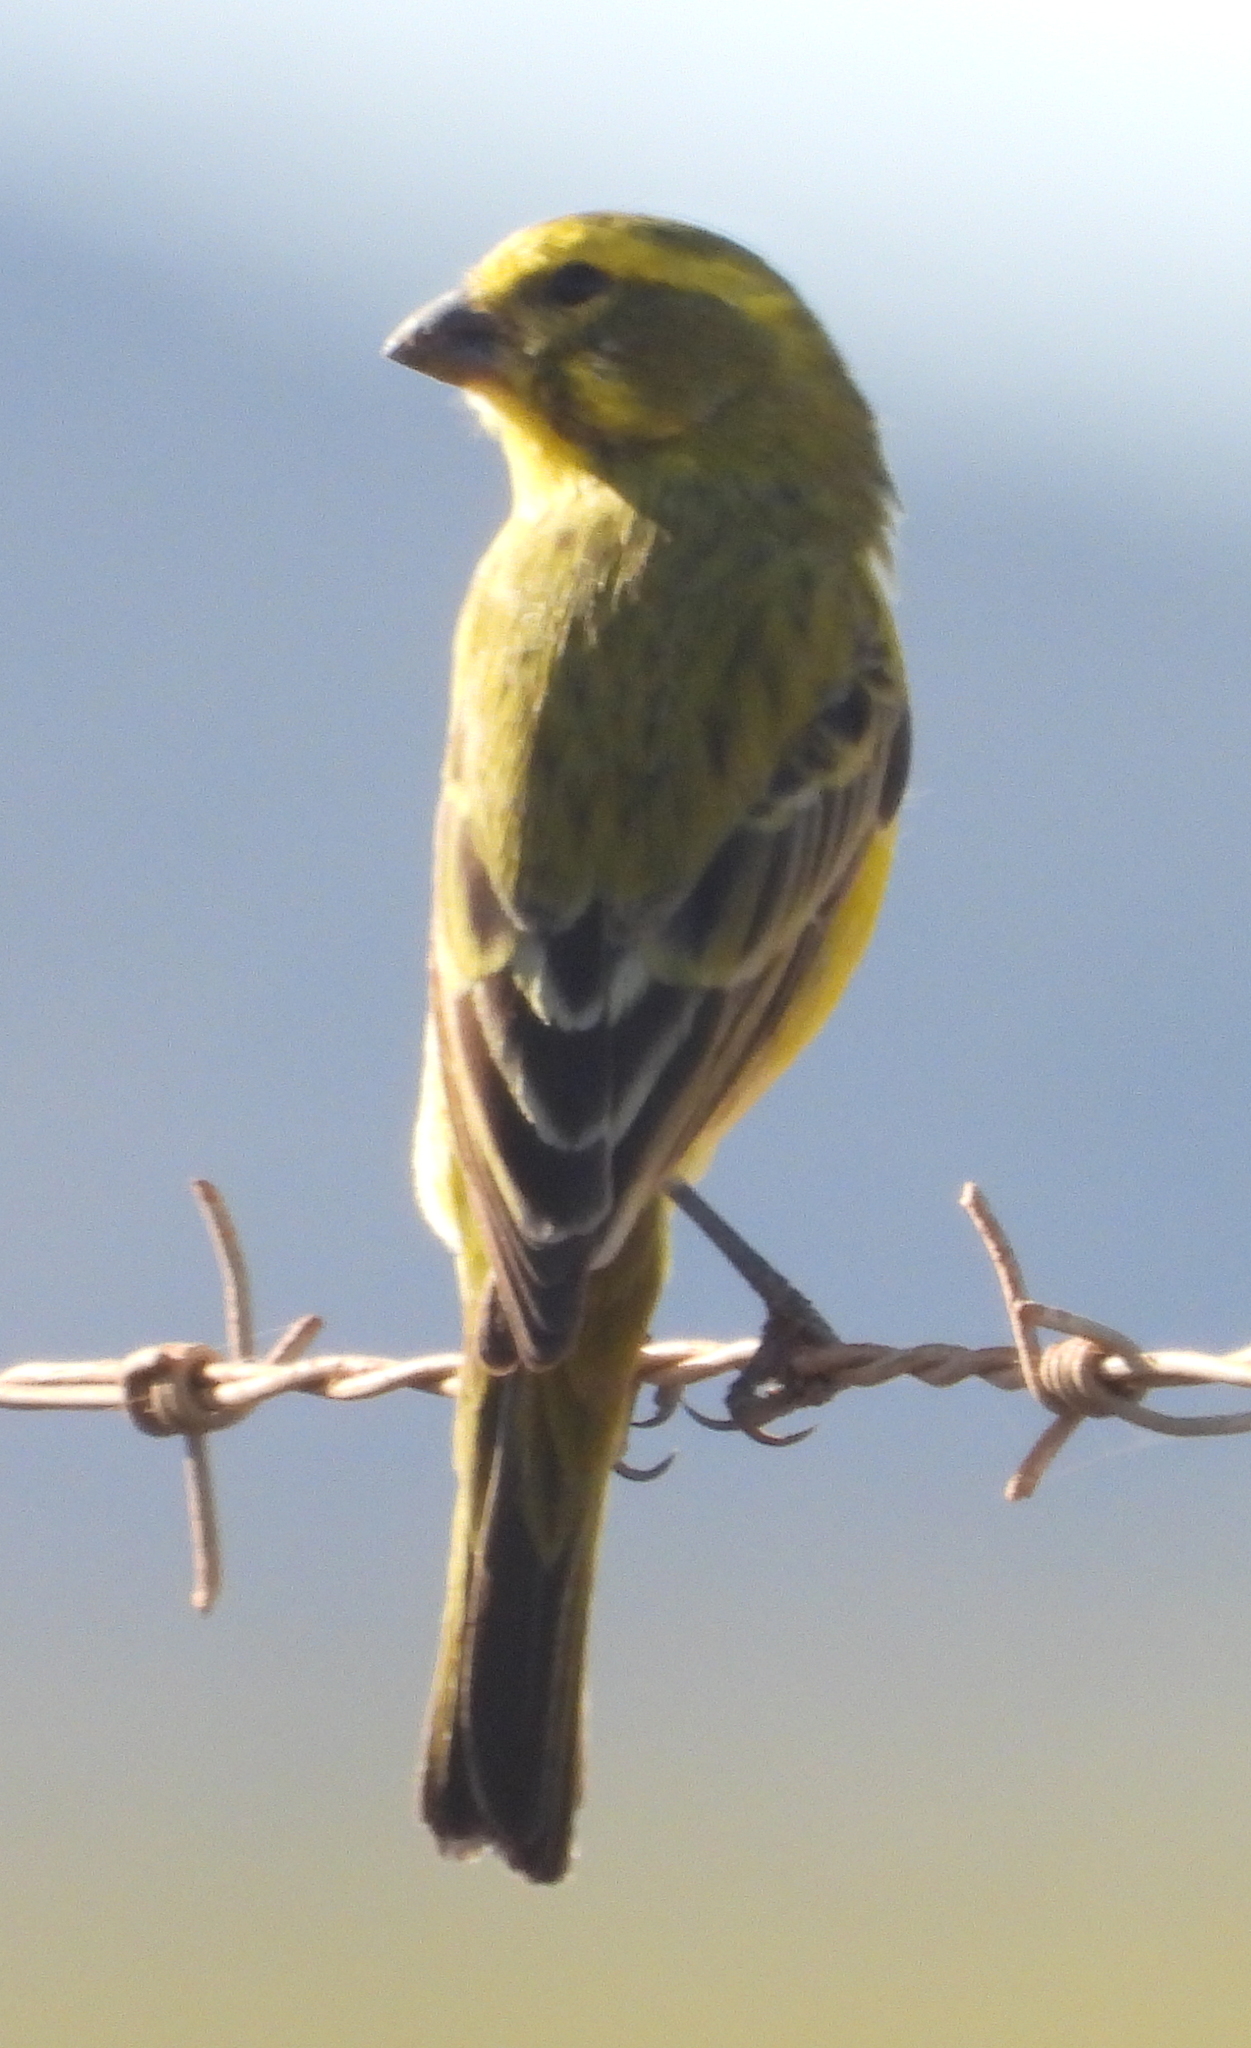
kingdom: Animalia
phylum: Chordata
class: Aves
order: Passeriformes
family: Fringillidae
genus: Crithagra
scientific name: Crithagra flaviventris
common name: Yellow canary
